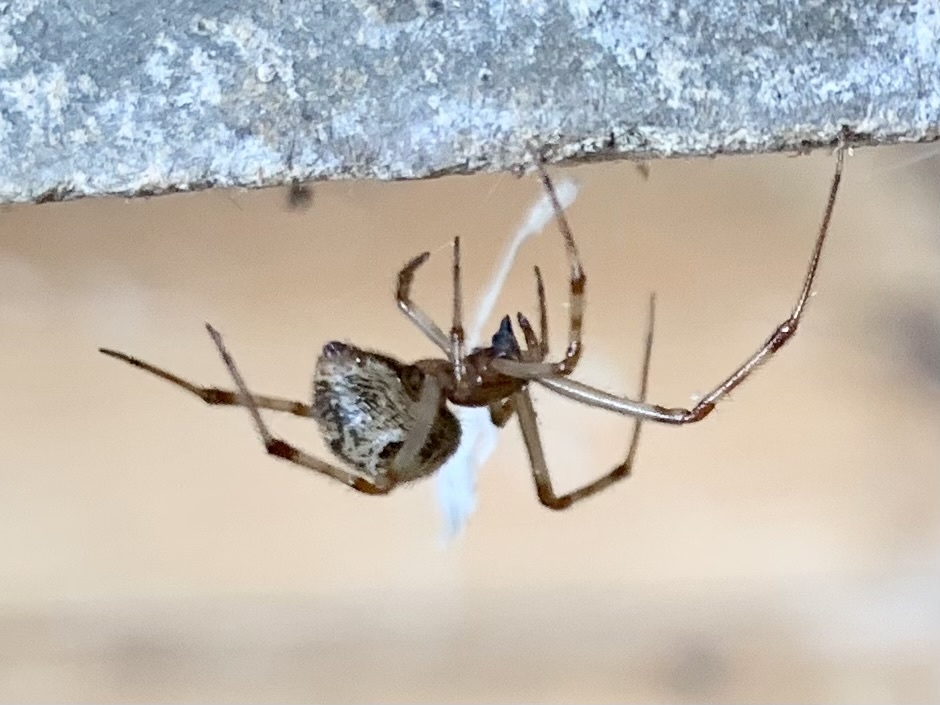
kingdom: Animalia
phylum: Arthropoda
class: Arachnida
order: Araneae
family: Theridiidae
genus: Parasteatoda
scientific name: Parasteatoda tepidariorum
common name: Common house spider
